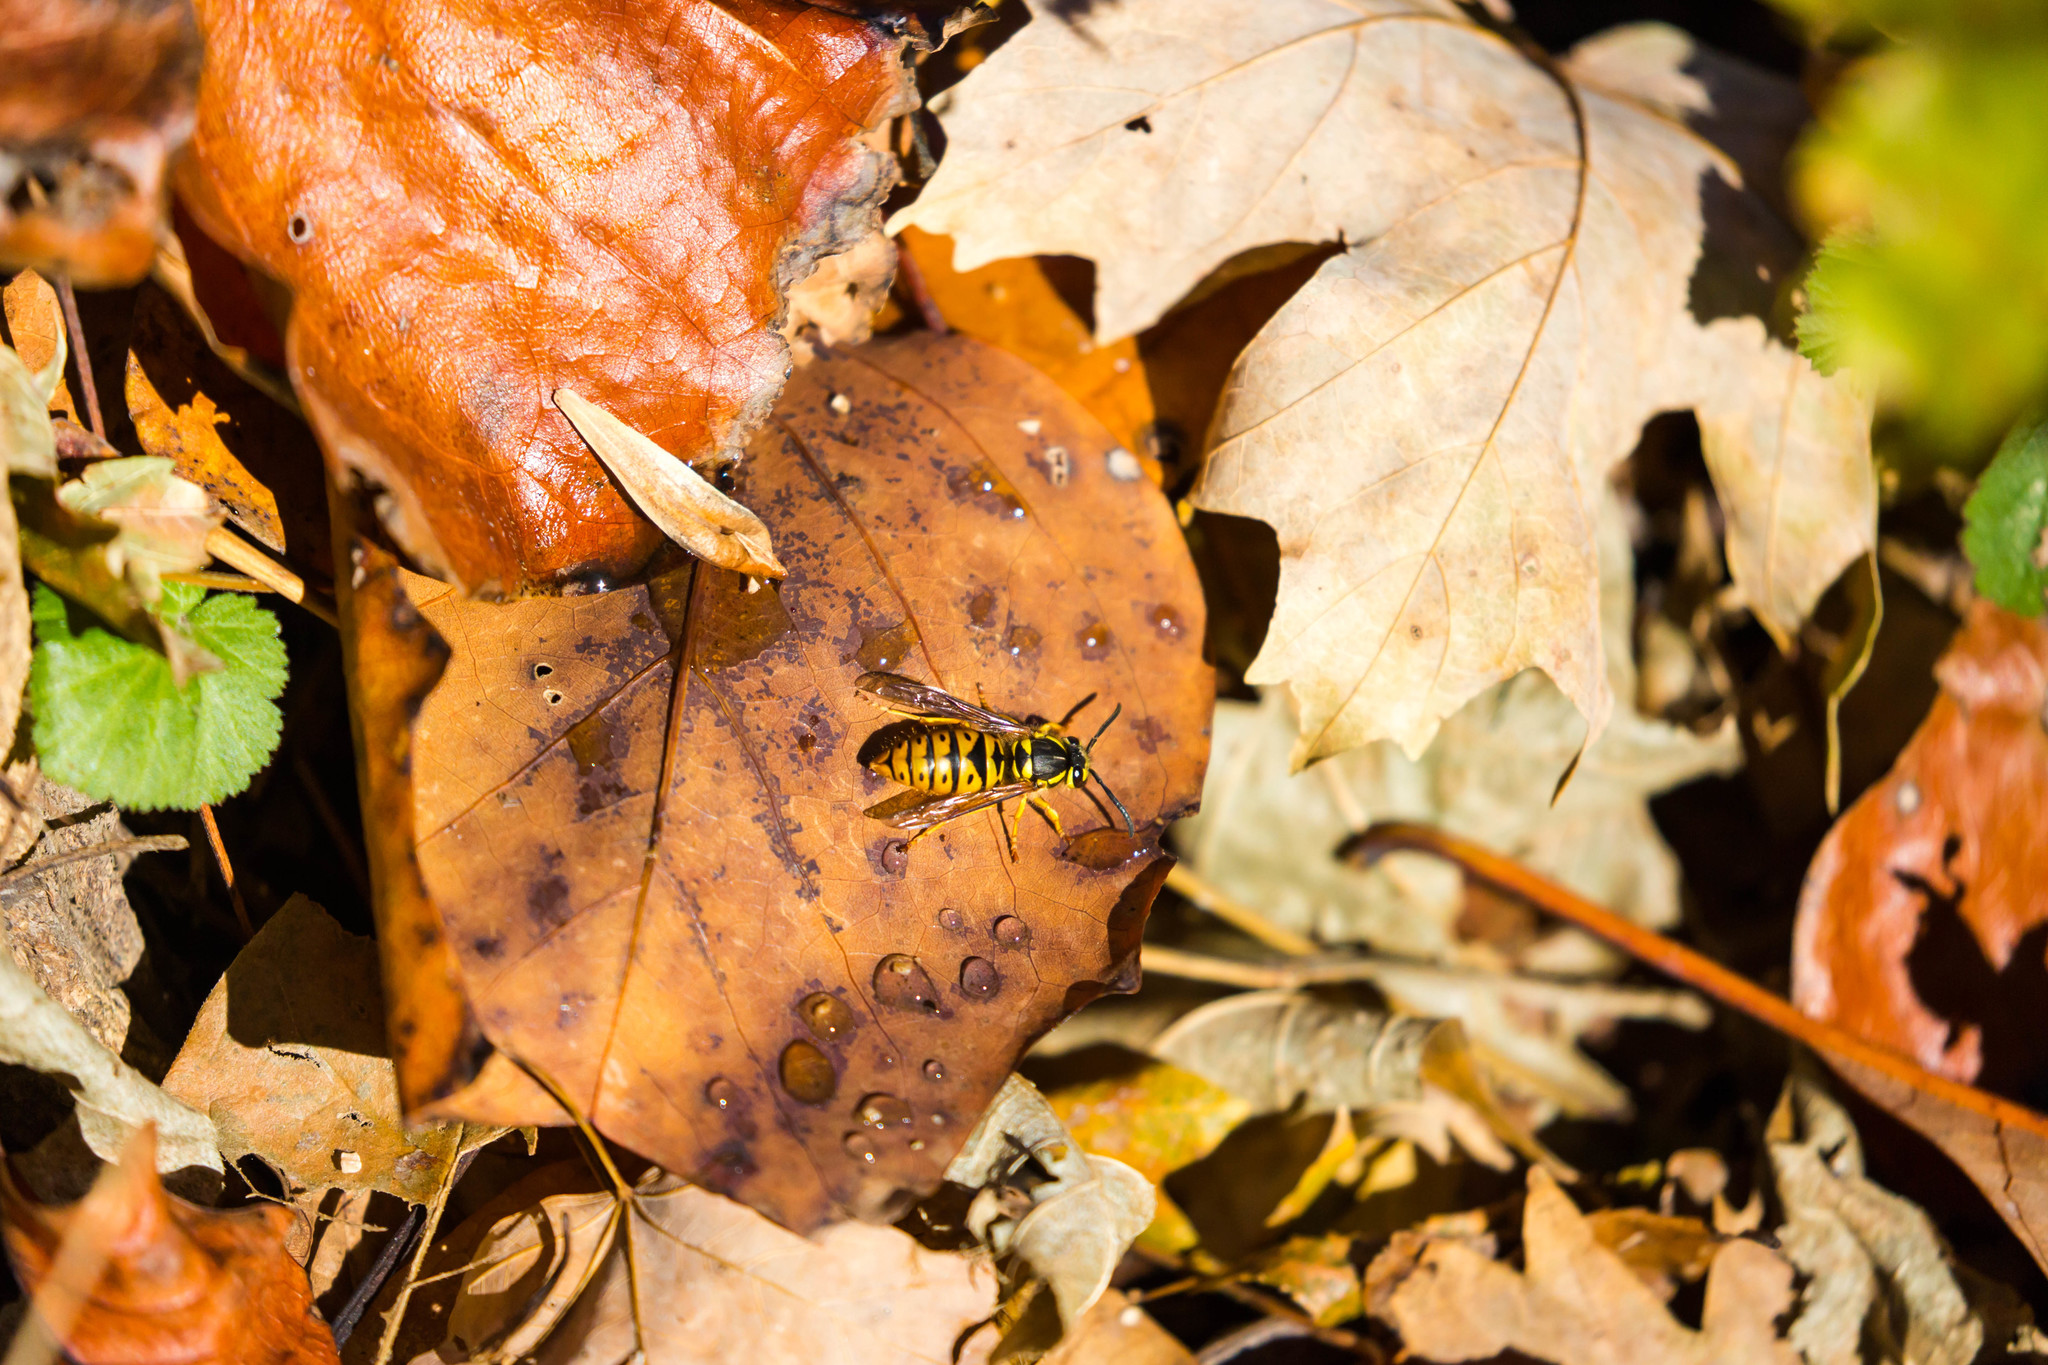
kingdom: Animalia
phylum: Arthropoda
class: Insecta
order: Hymenoptera
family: Vespidae
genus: Vespula
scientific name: Vespula maculifrons
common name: Eastern yellowjacket
